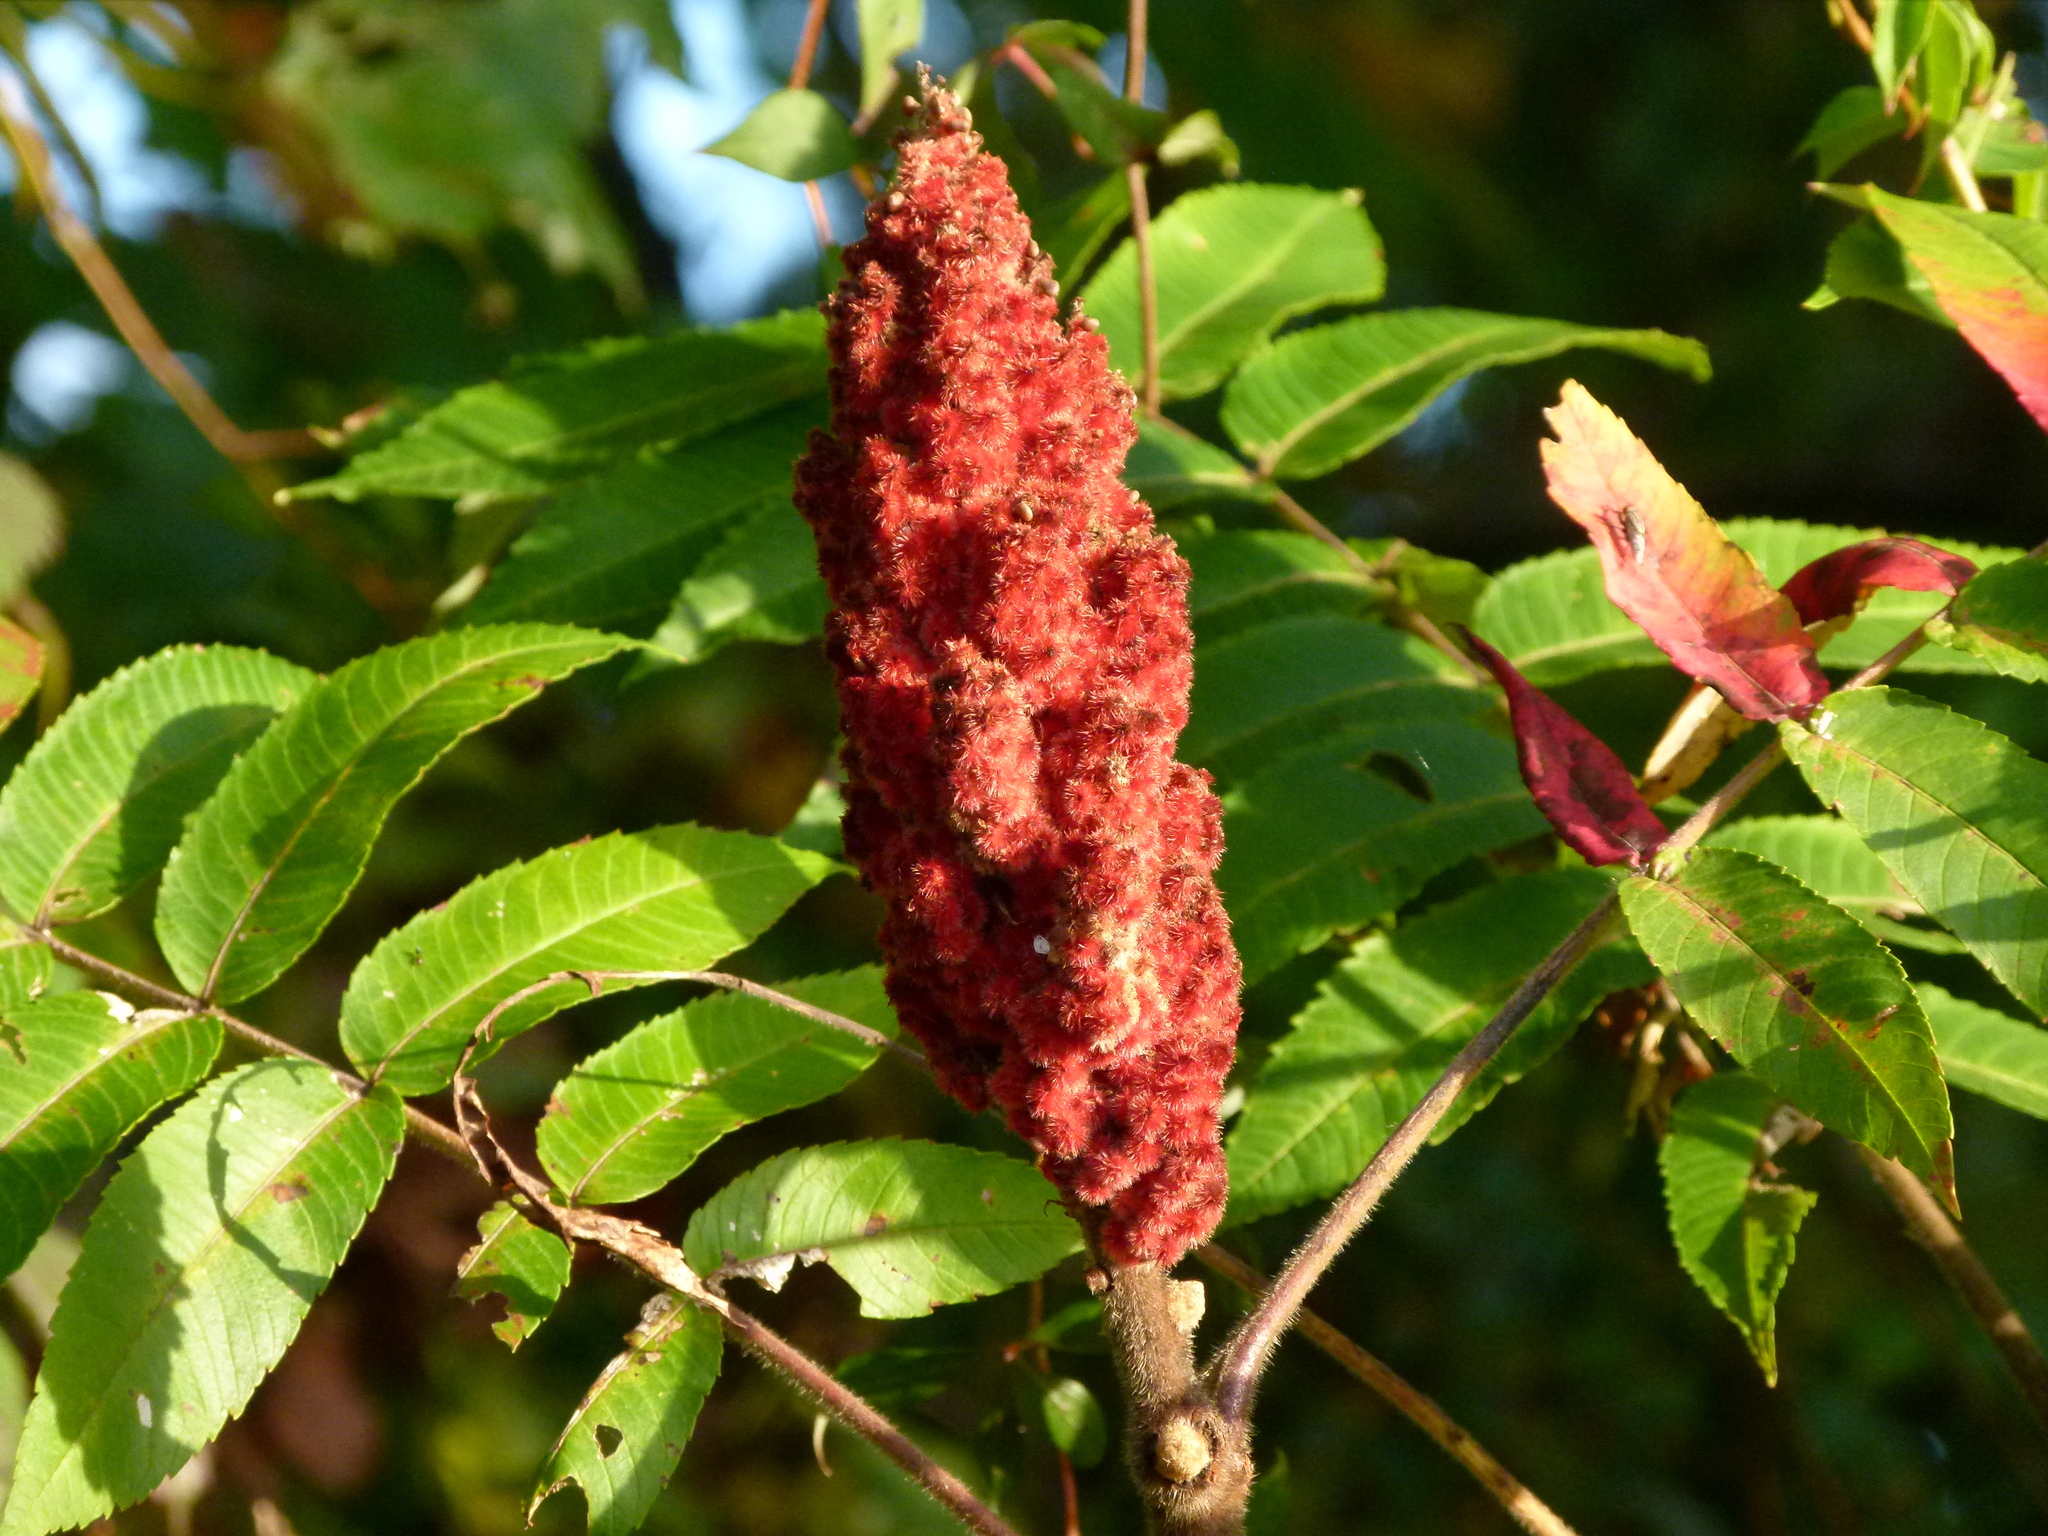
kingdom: Plantae
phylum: Tracheophyta
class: Magnoliopsida
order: Sapindales
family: Anacardiaceae
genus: Rhus
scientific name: Rhus typhina
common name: Staghorn sumac
